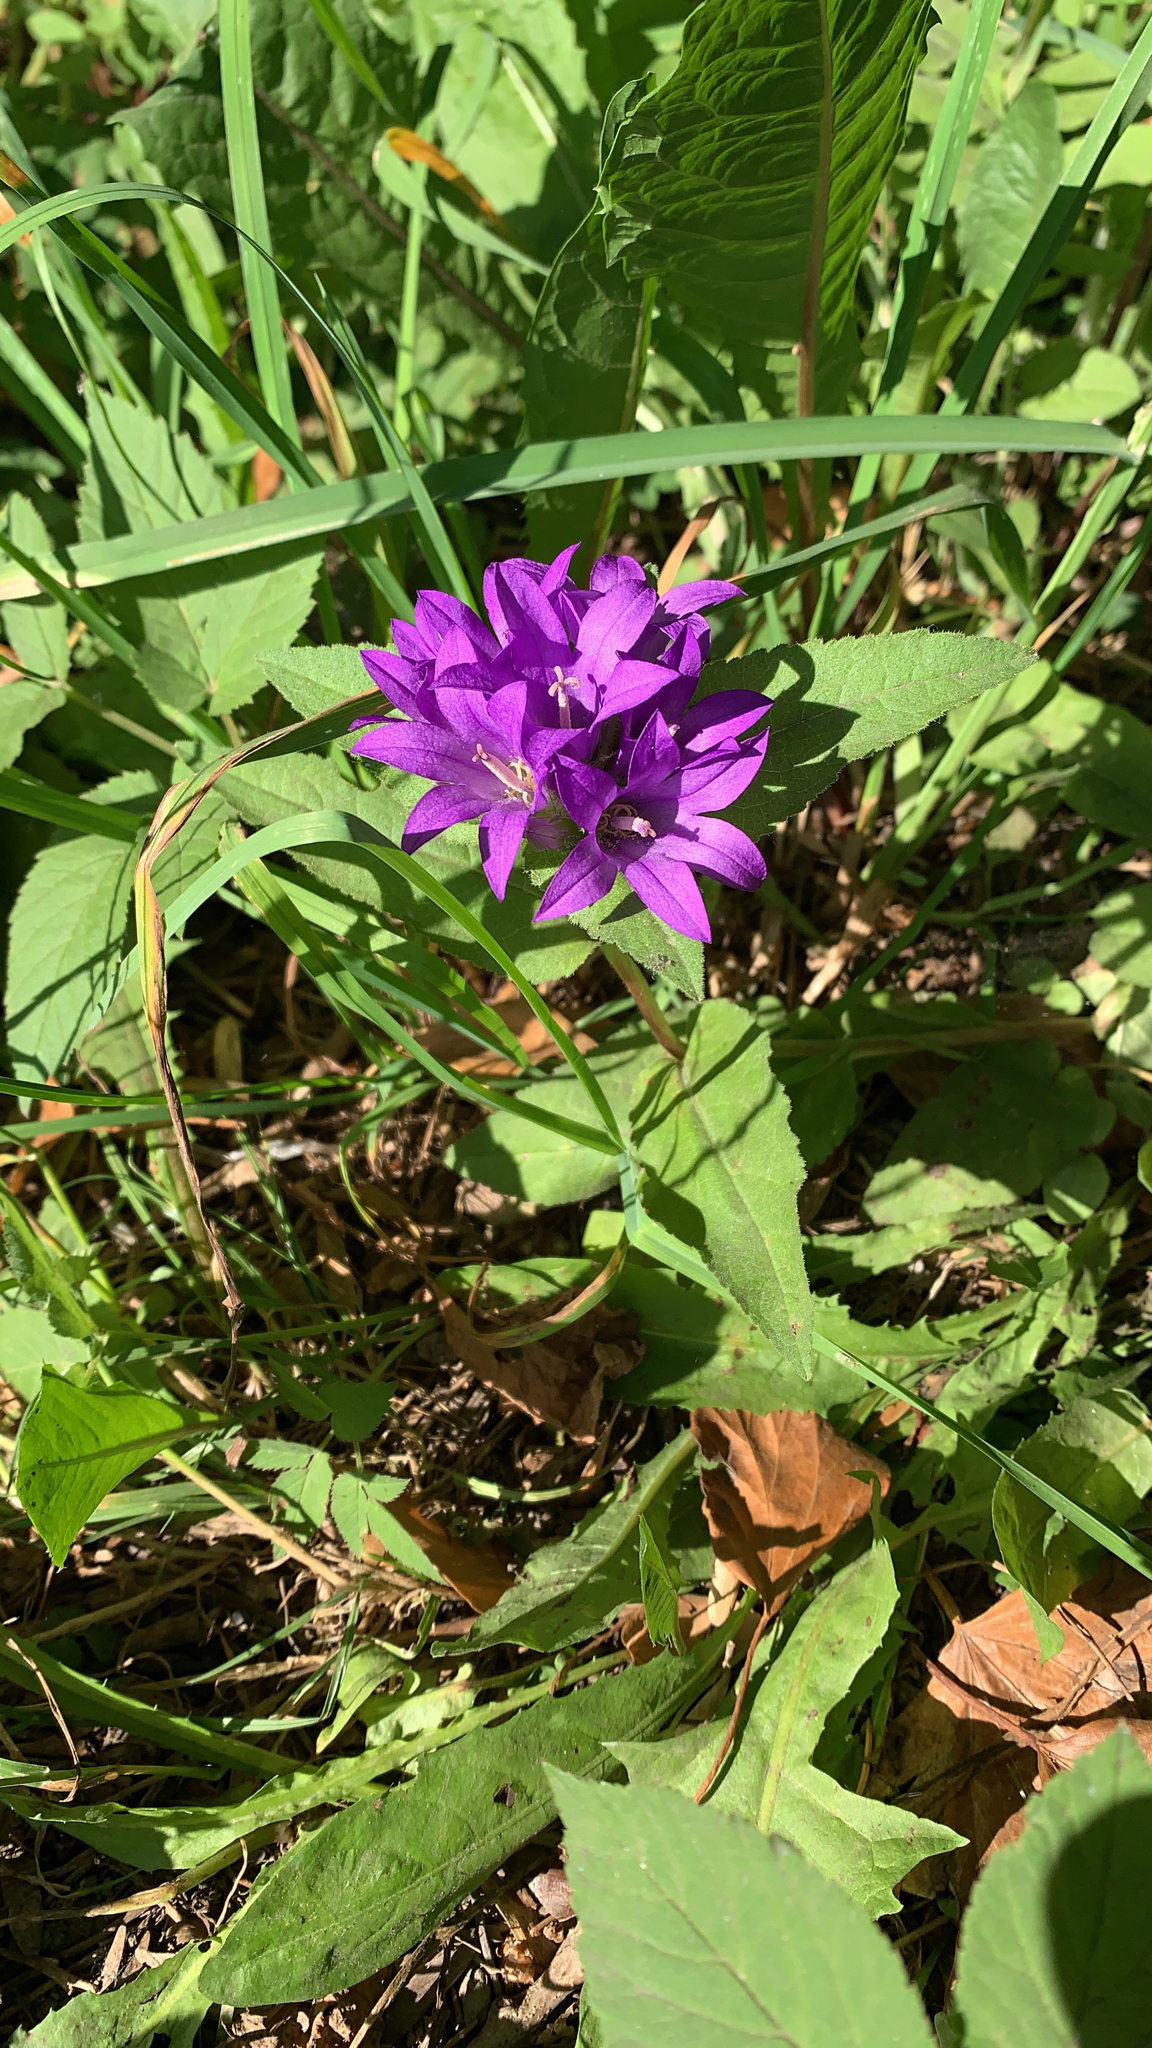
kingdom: Plantae
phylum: Tracheophyta
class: Magnoliopsida
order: Asterales
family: Campanulaceae
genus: Campanula
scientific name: Campanula glomerata
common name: Clustered bellflower
